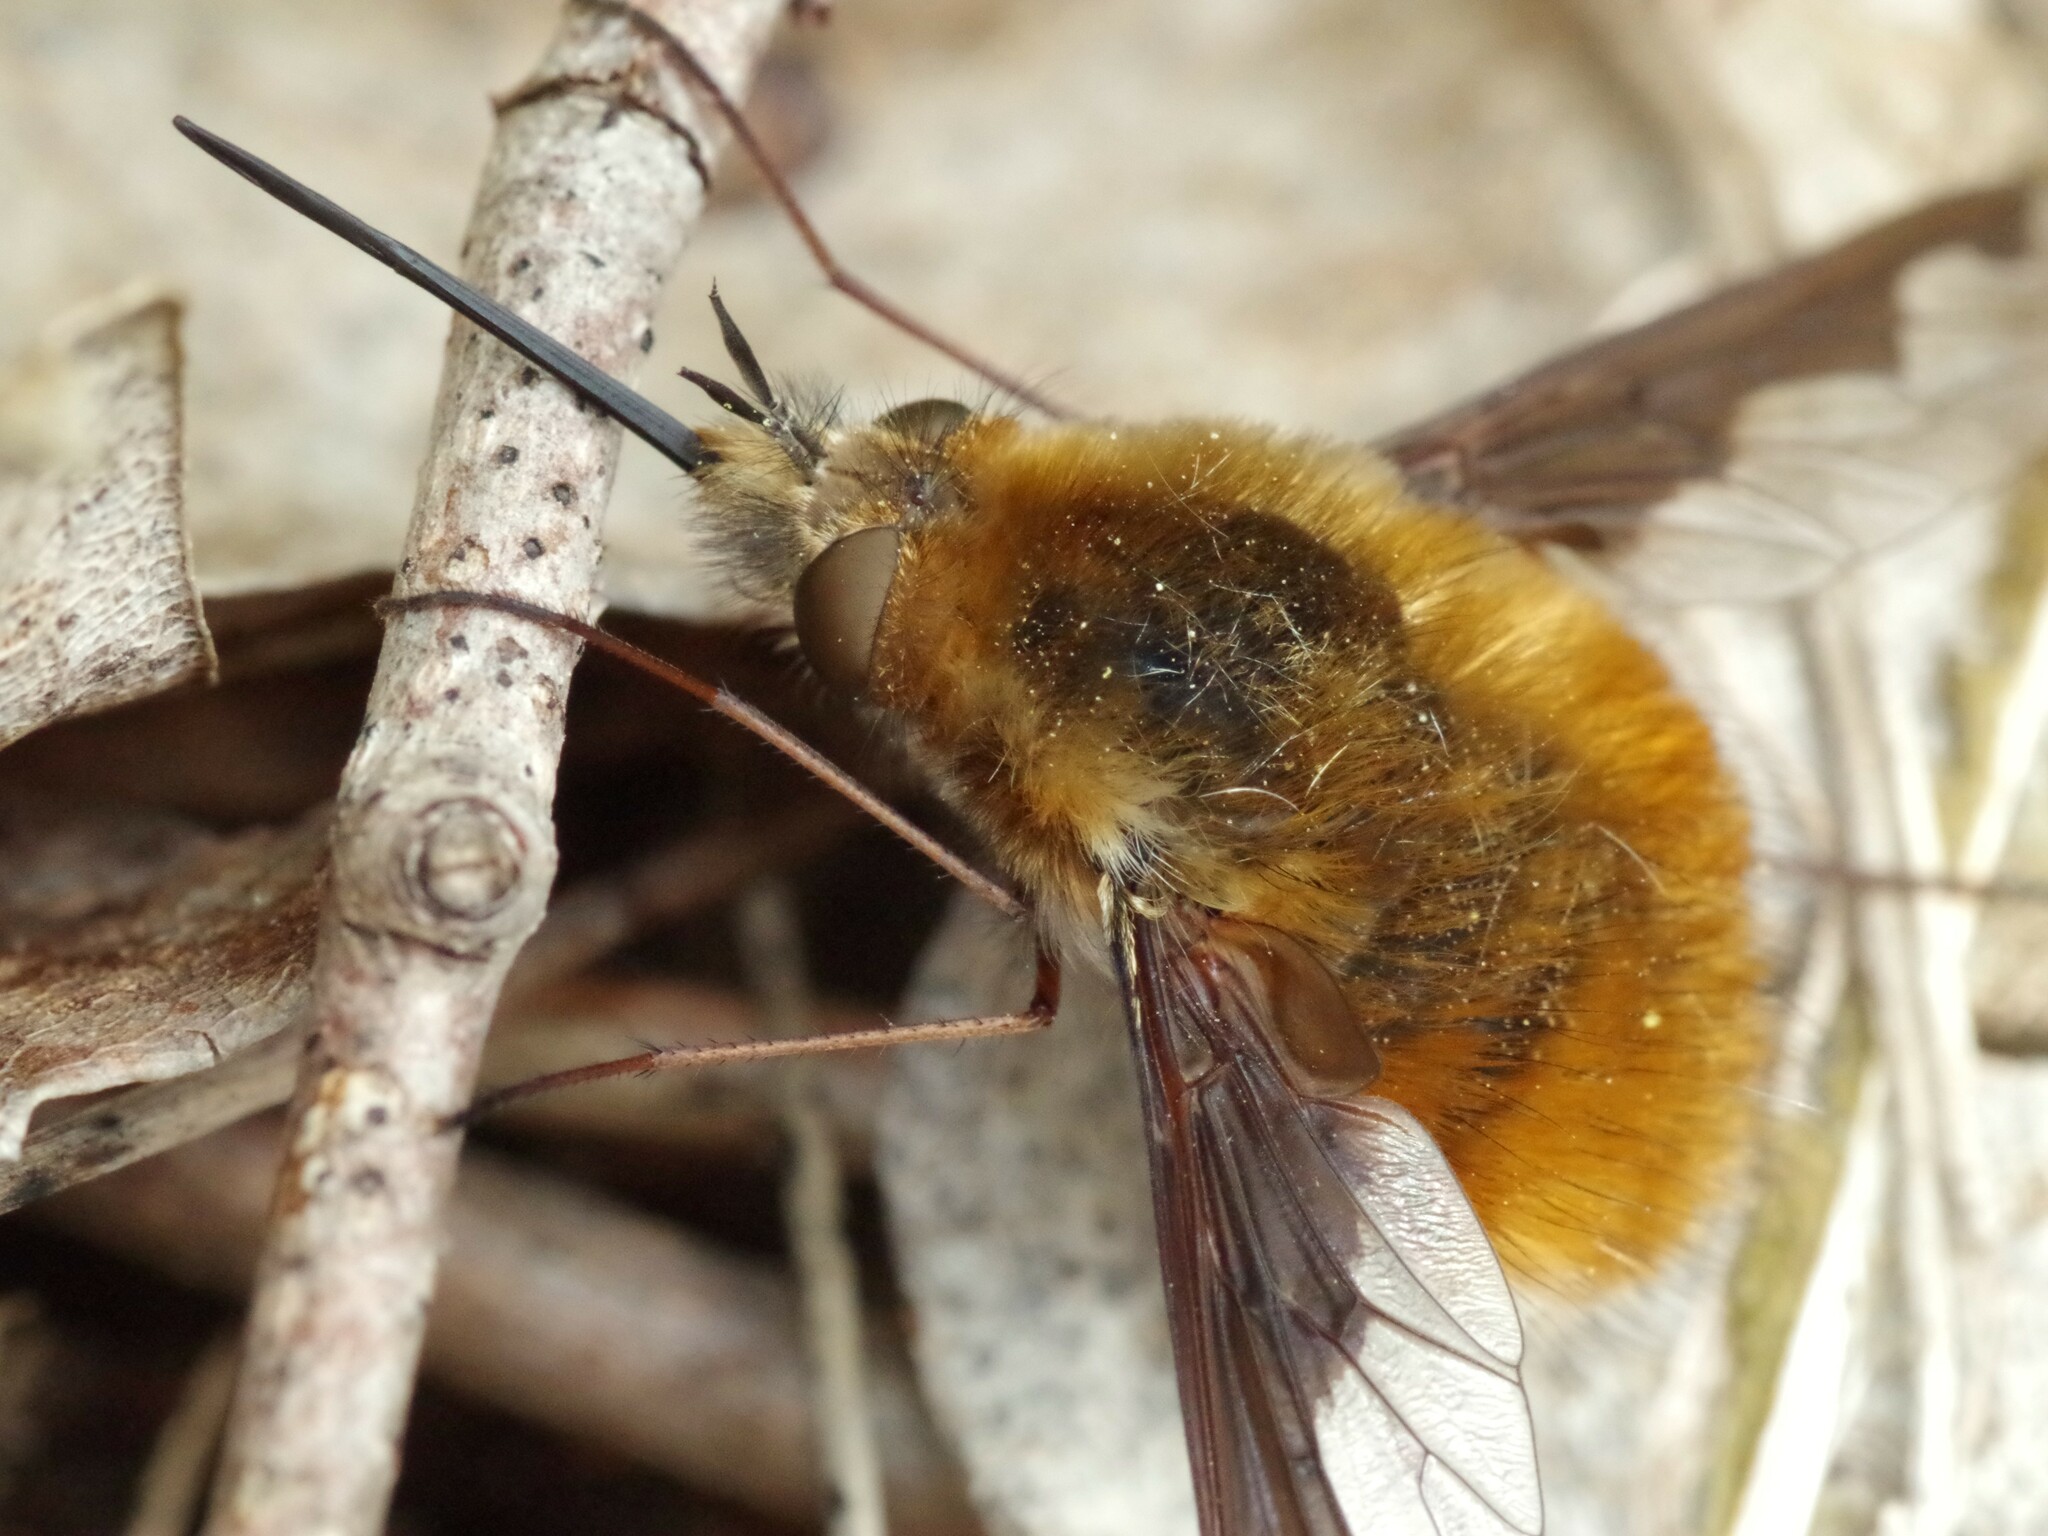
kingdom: Animalia
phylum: Arthropoda
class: Insecta
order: Diptera
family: Bombyliidae
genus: Bombylius
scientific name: Bombylius major
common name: Bee fly
